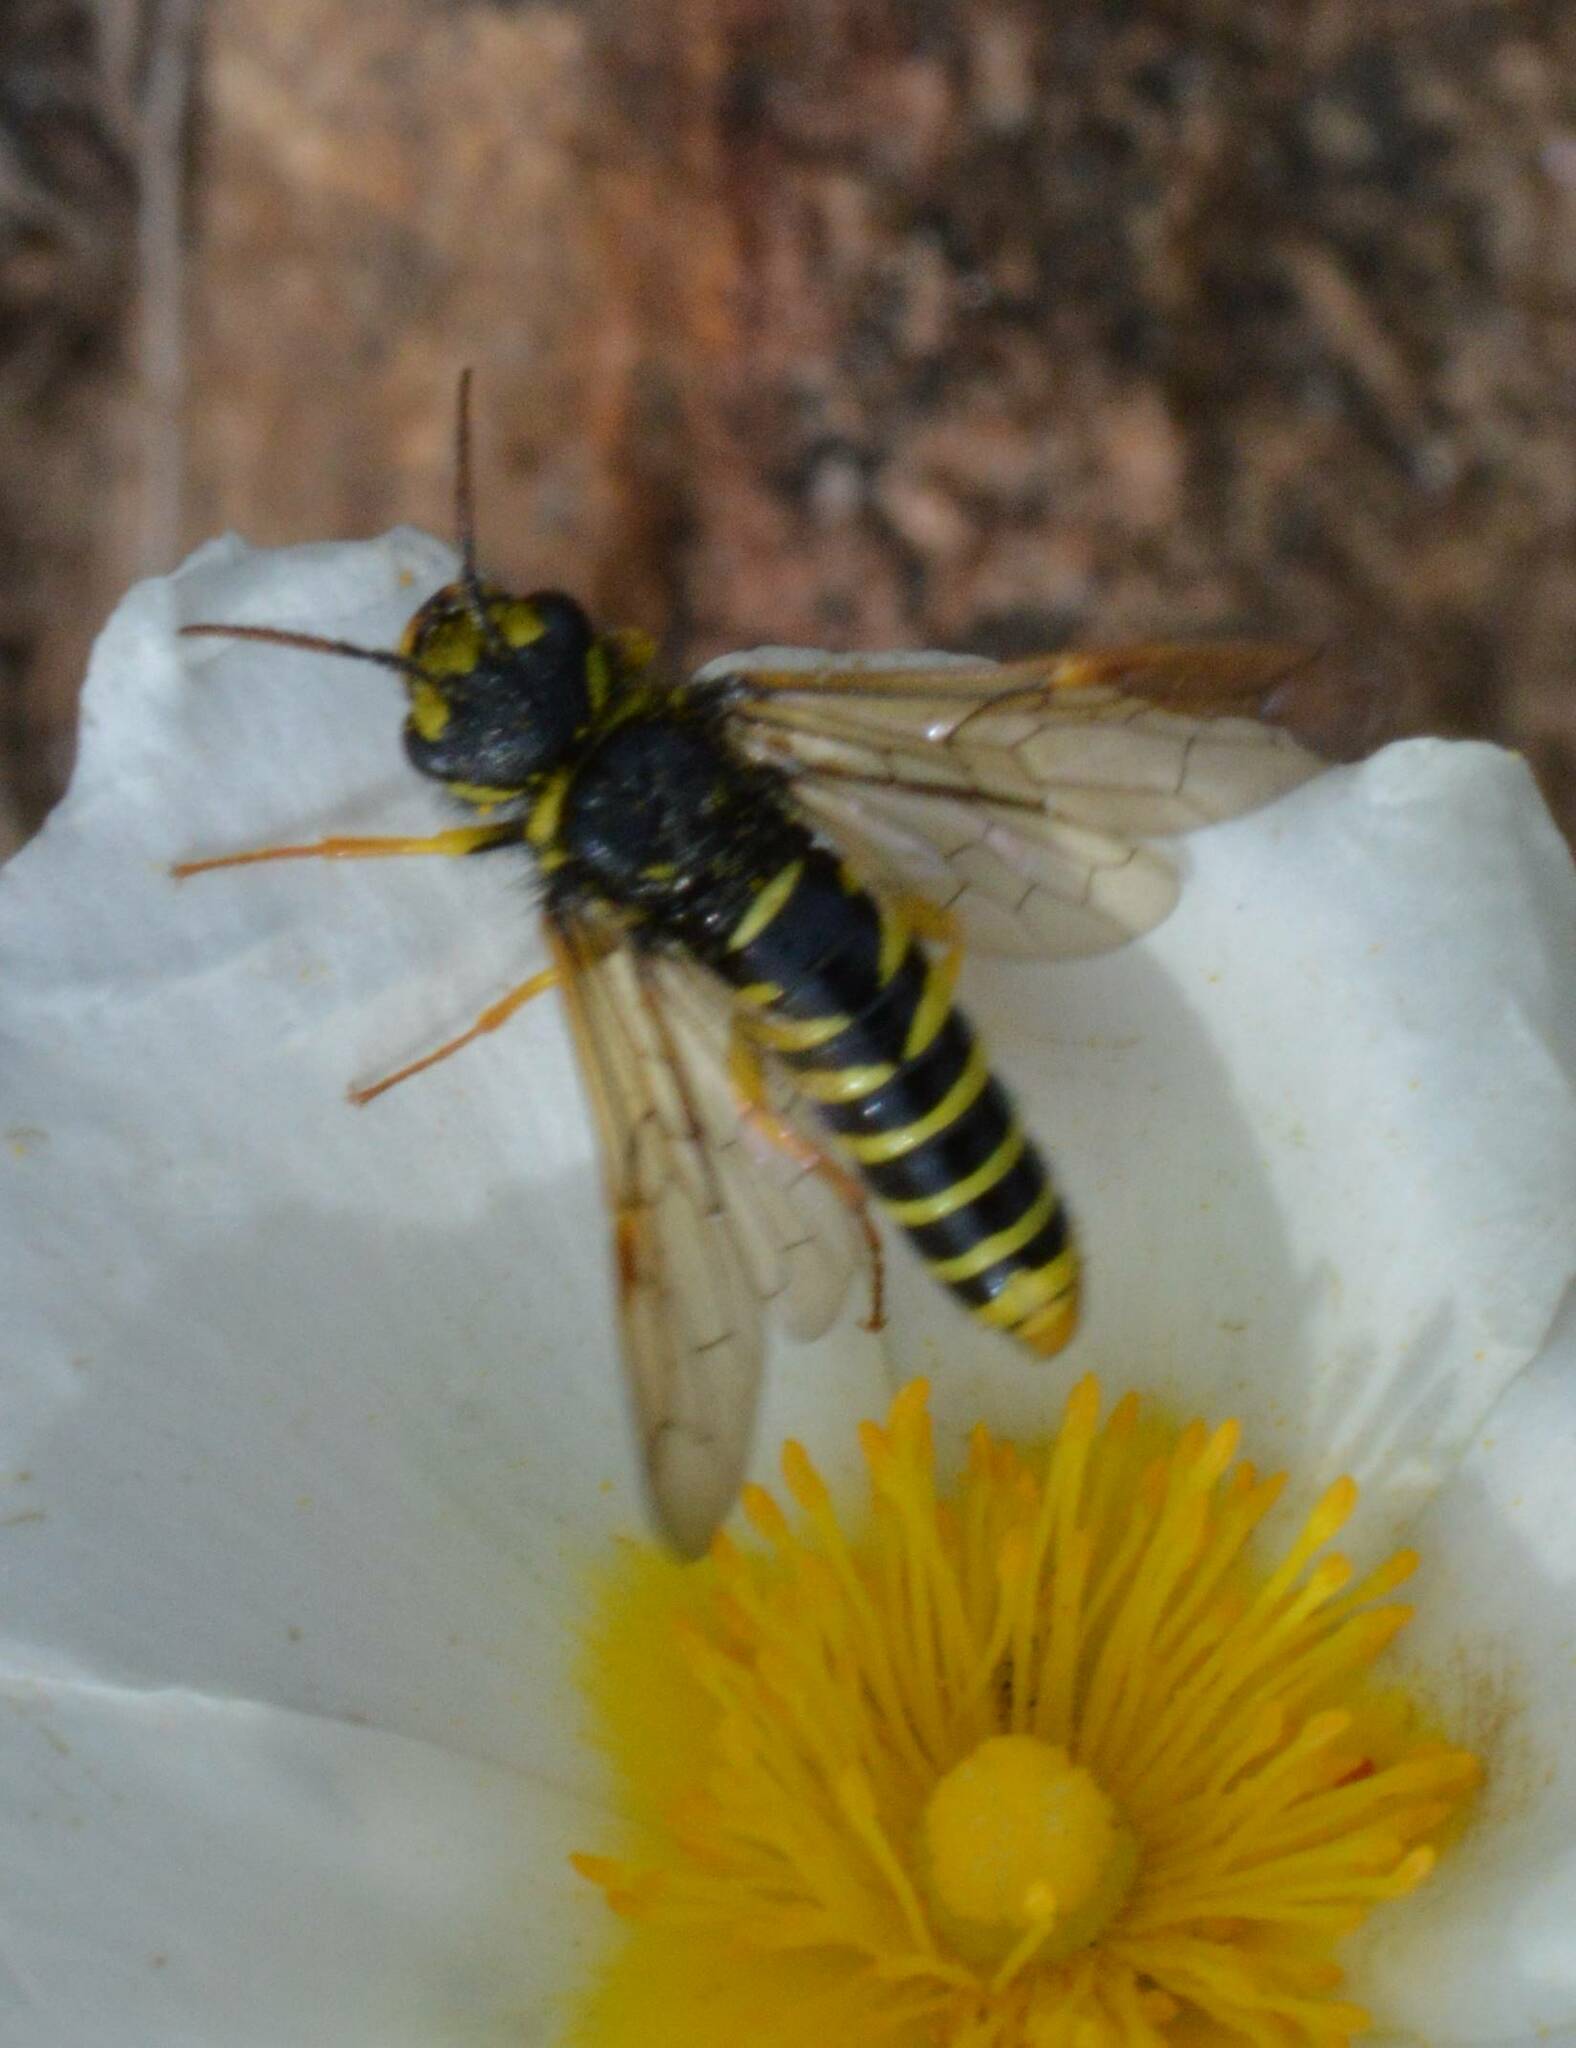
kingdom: Animalia
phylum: Arthropoda
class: Insecta
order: Hymenoptera
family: Megalodontesidae
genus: Megalodontes
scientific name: Megalodontes lacourti
